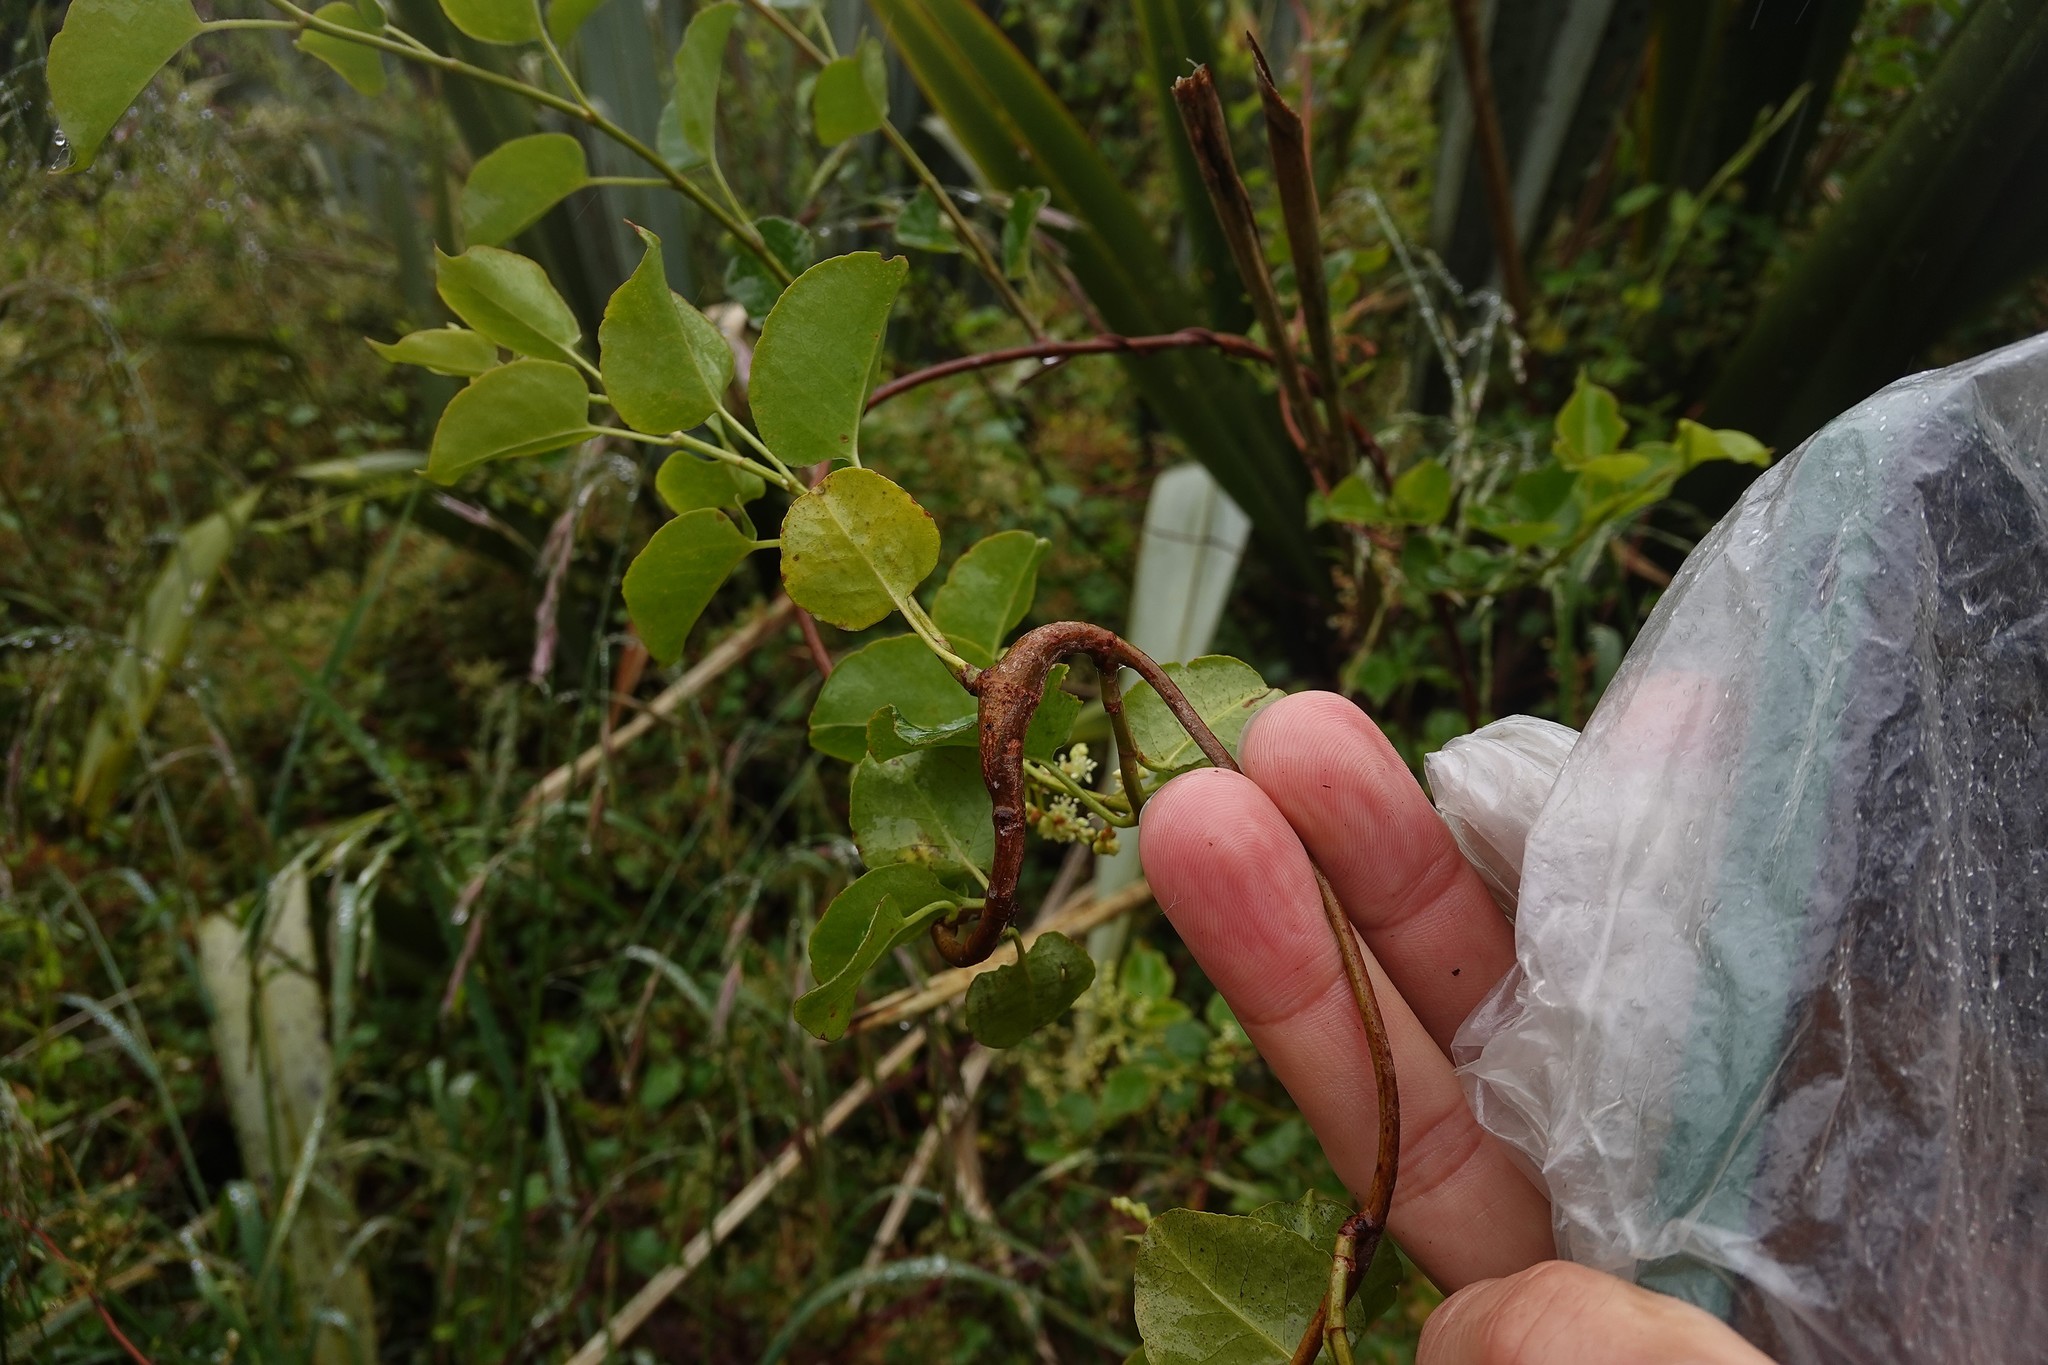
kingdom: Animalia
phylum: Arthropoda
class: Insecta
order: Lepidoptera
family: Thyrididae
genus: Morova
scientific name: Morova subfasciata
